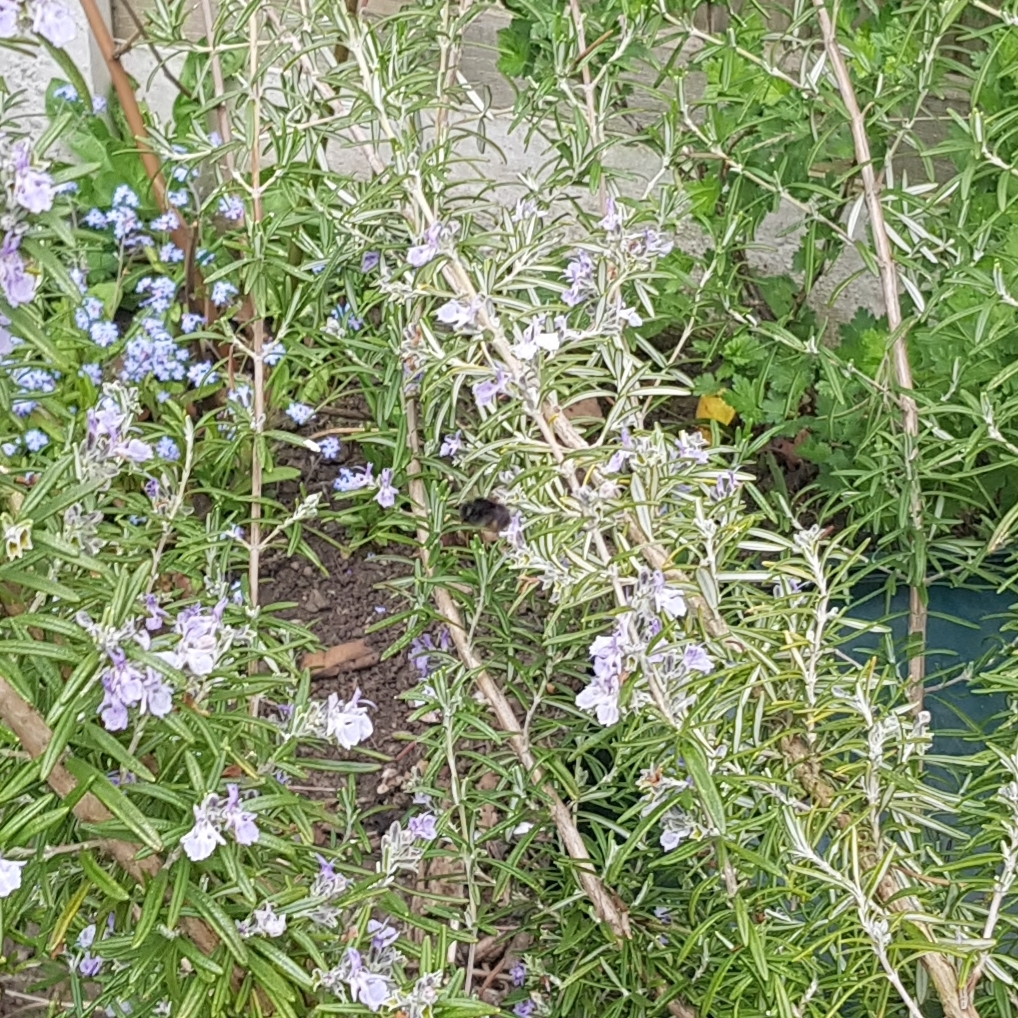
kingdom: Animalia
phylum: Arthropoda
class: Insecta
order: Hymenoptera
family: Apidae
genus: Anthophora
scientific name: Anthophora plumipes
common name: Hairy-footed flower bee
